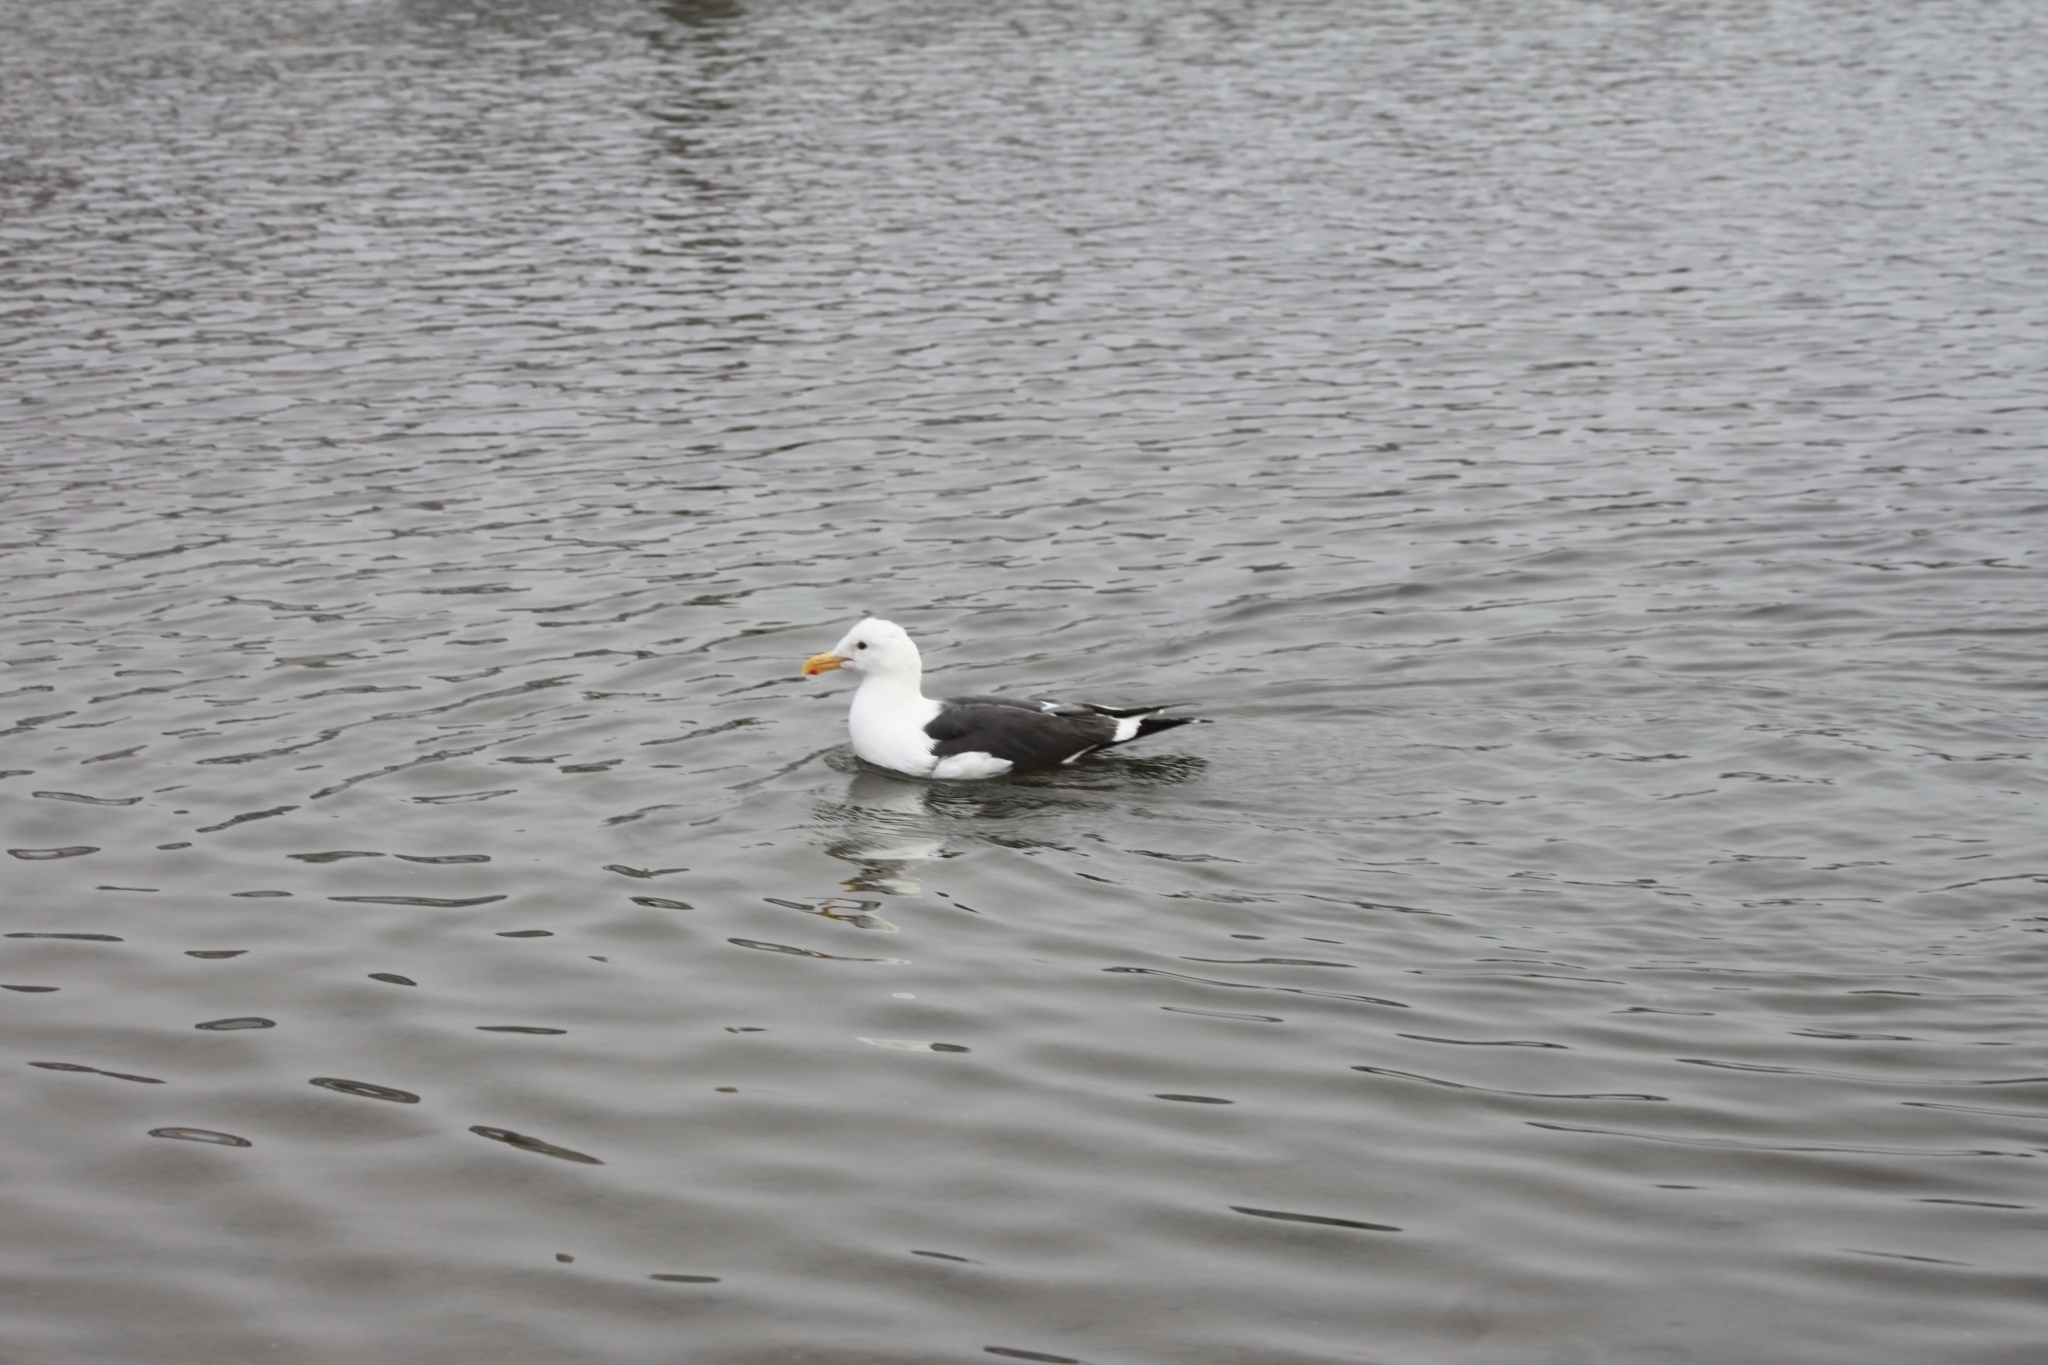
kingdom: Animalia
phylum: Chordata
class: Aves
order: Charadriiformes
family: Laridae
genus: Larus
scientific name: Larus occidentalis
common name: Western gull
